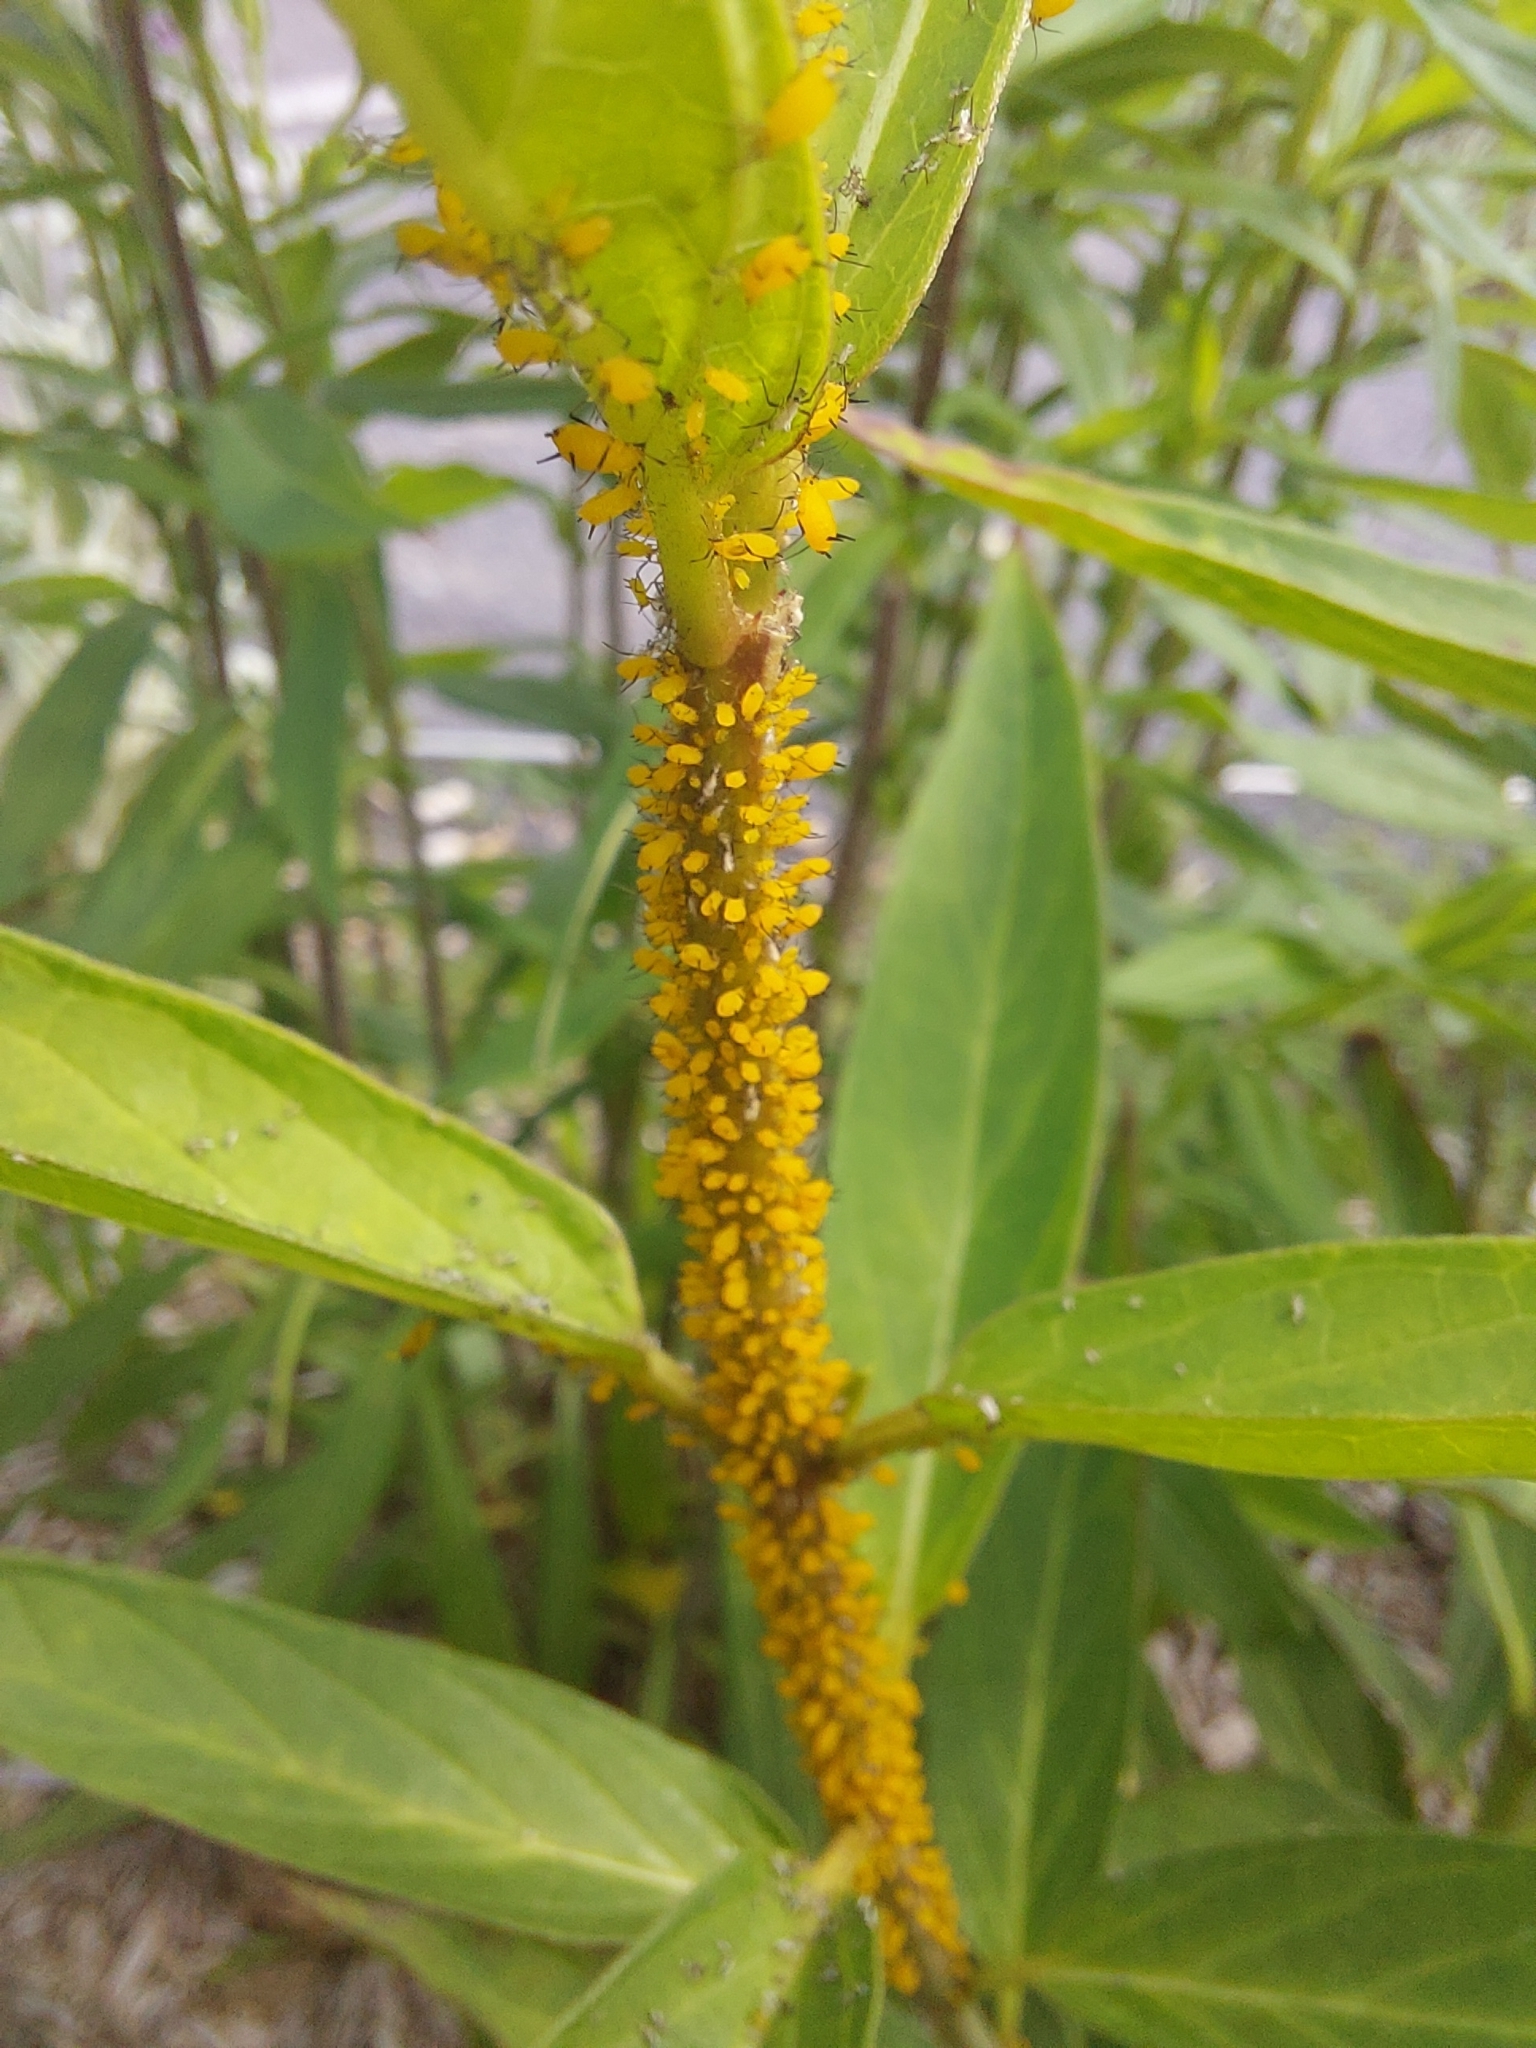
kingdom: Animalia
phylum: Arthropoda
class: Insecta
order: Hemiptera
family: Aphididae
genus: Aphis
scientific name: Aphis nerii
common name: Oleander aphid
